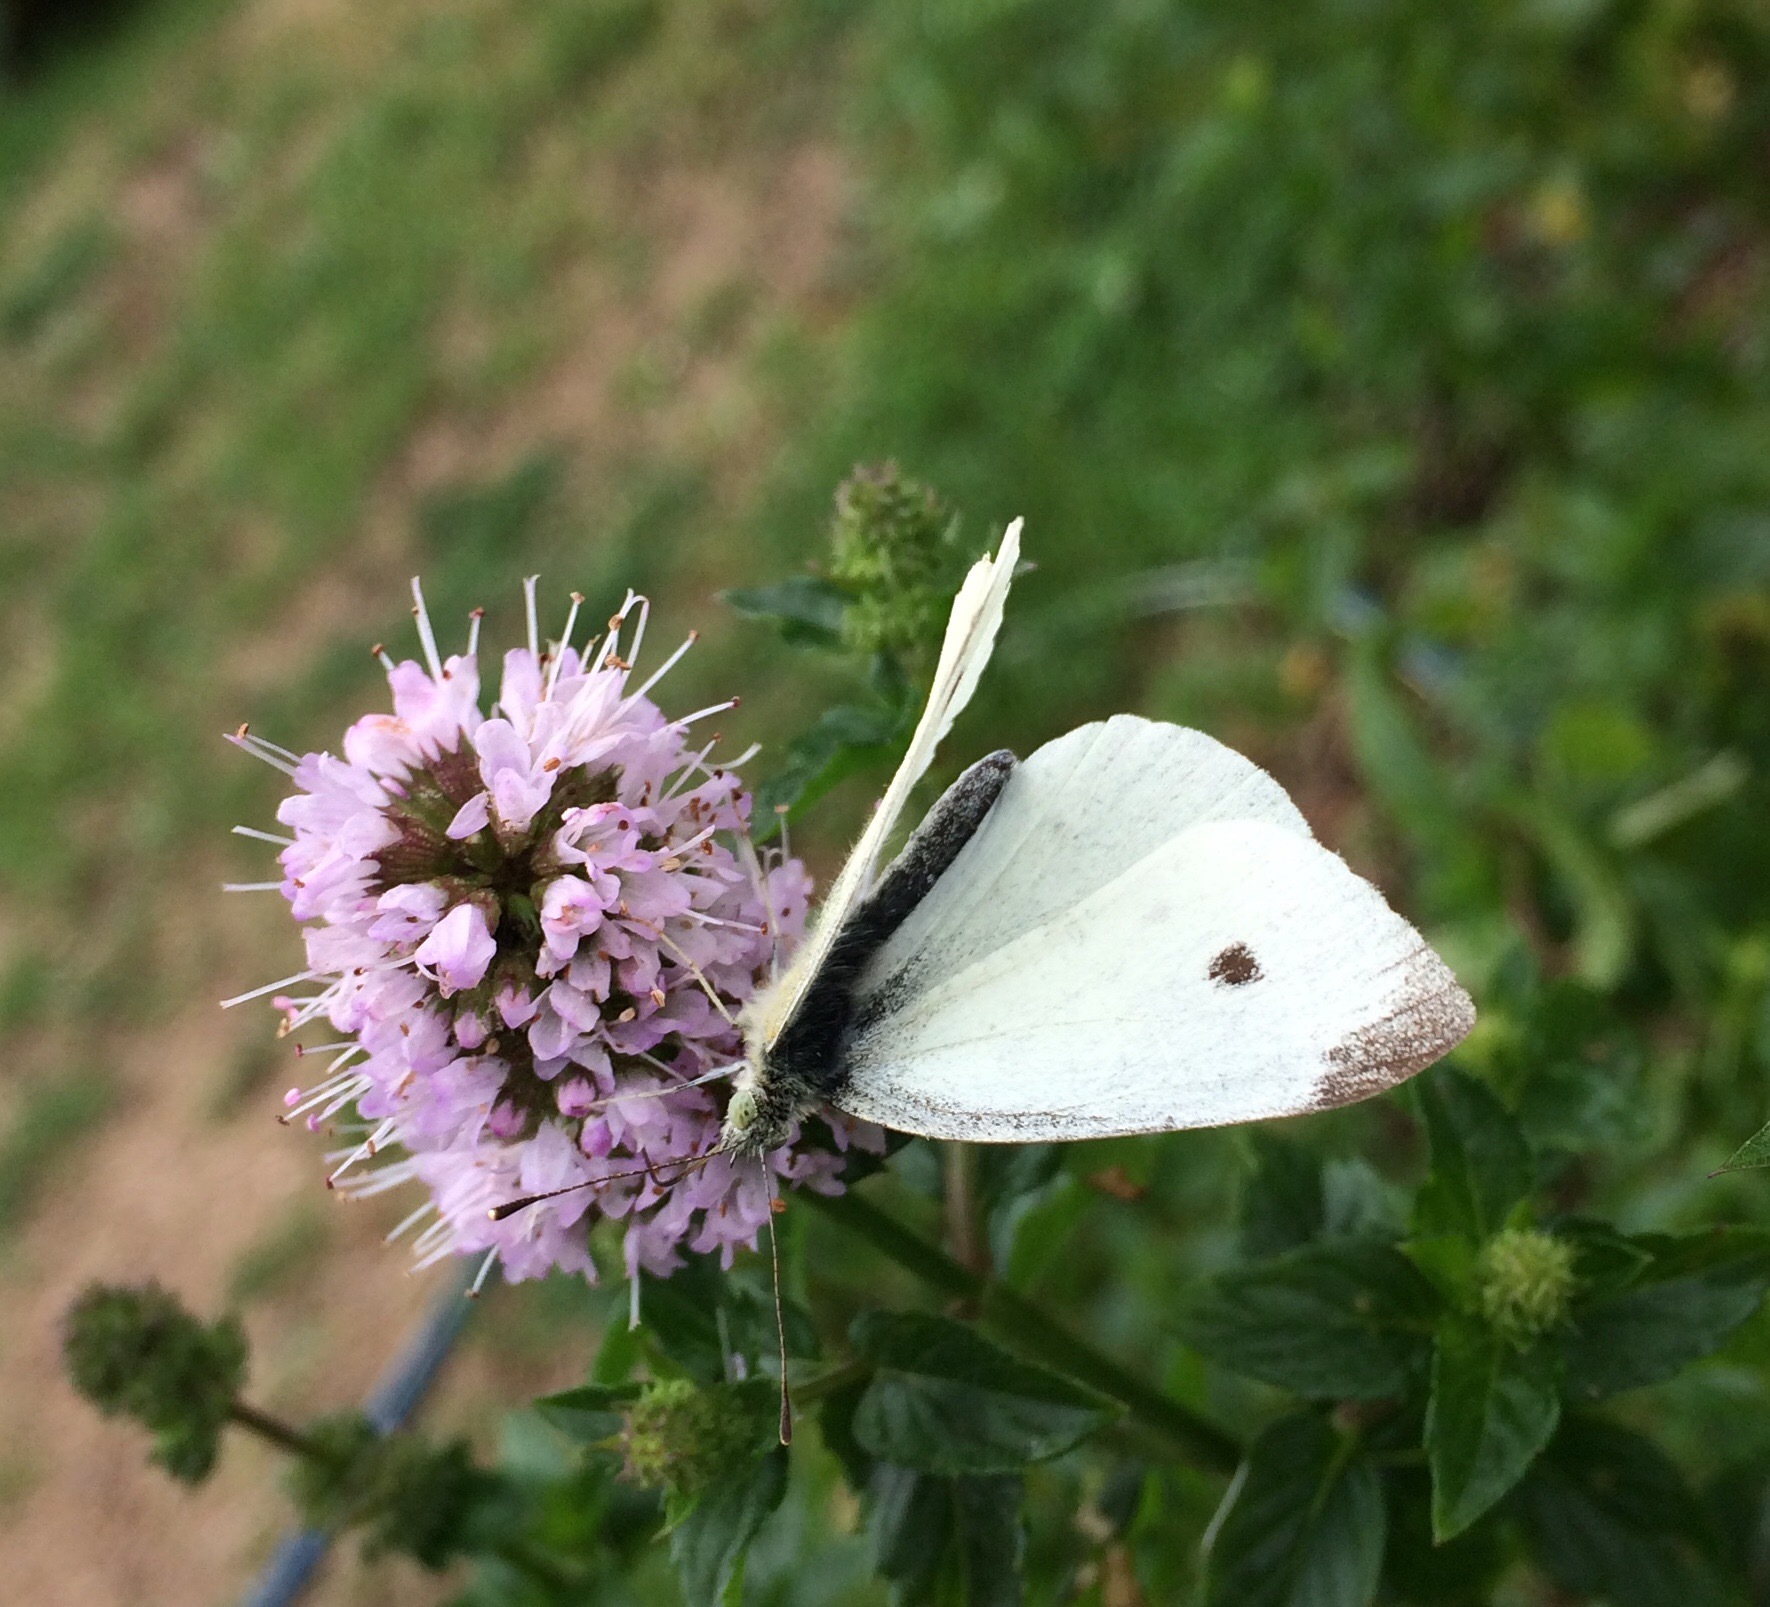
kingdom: Animalia
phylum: Arthropoda
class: Insecta
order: Lepidoptera
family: Pieridae
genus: Pieris
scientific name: Pieris rapae
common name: Small white
